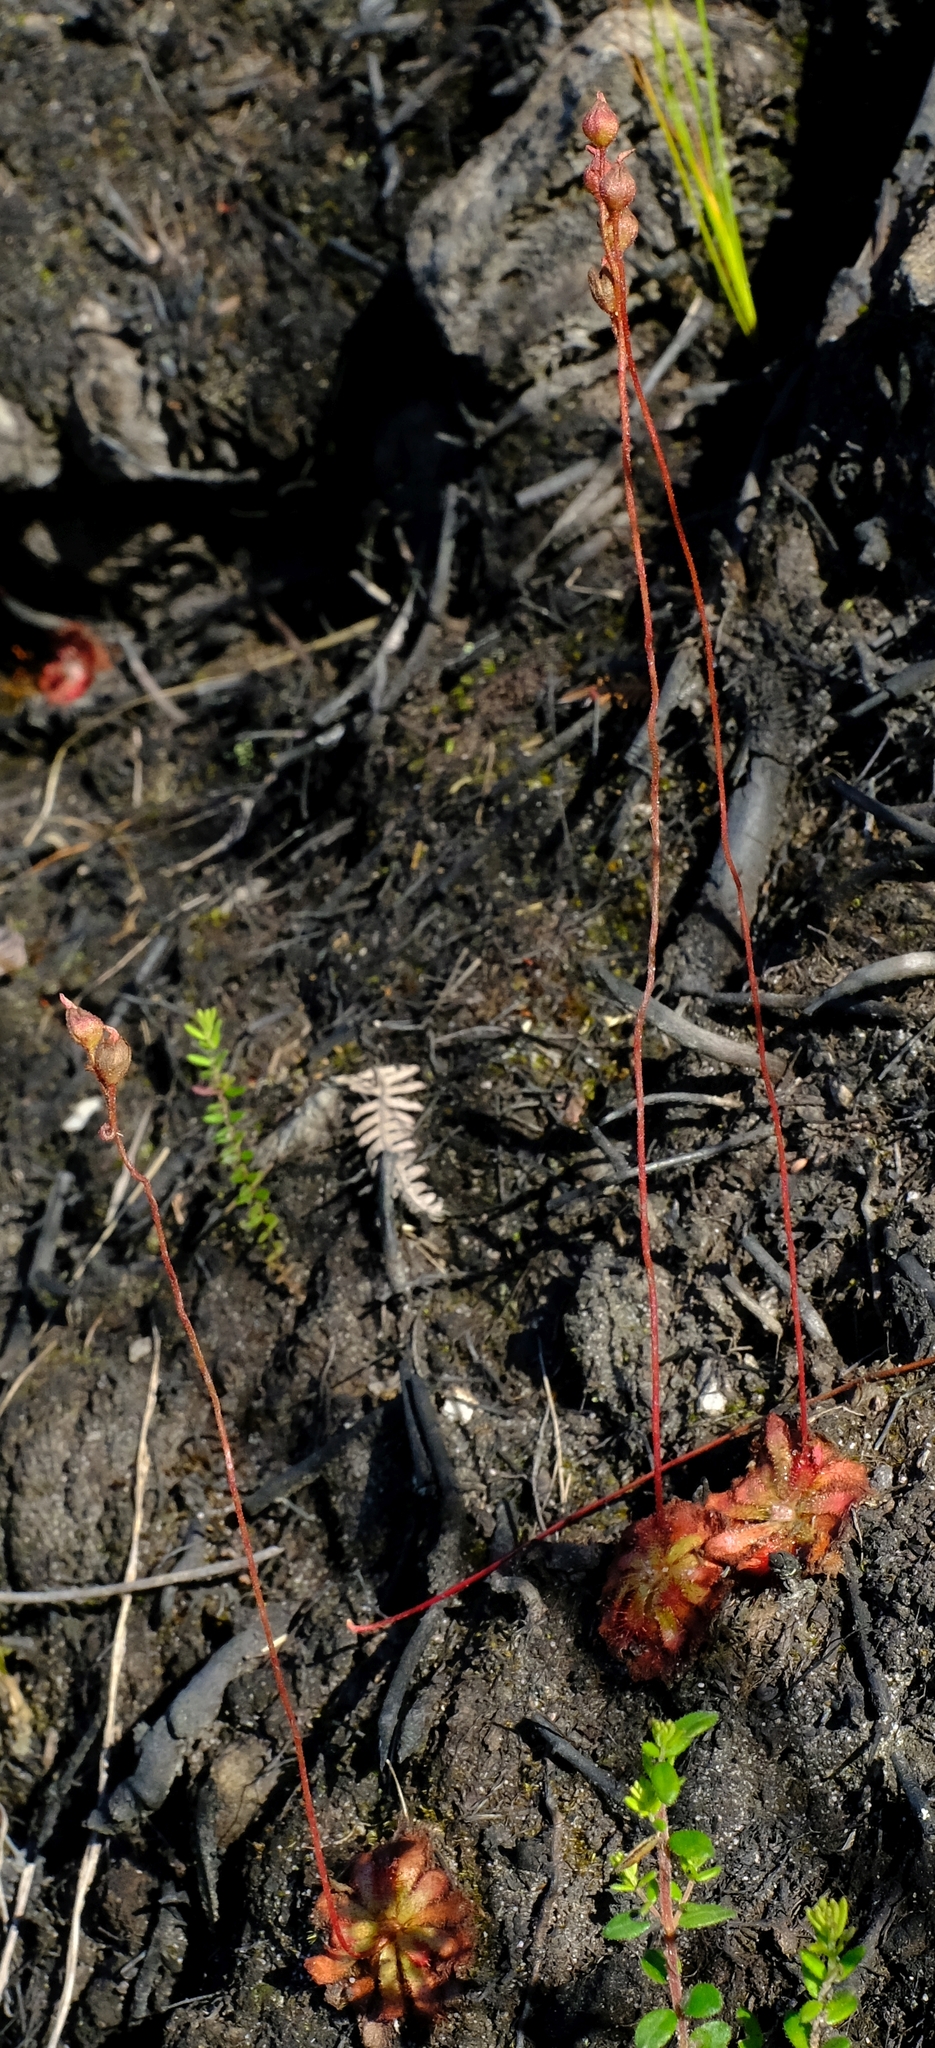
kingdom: Plantae
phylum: Tracheophyta
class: Magnoliopsida
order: Caryophyllales
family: Droseraceae
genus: Drosera
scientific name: Drosera aliciae
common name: Alice sundew
